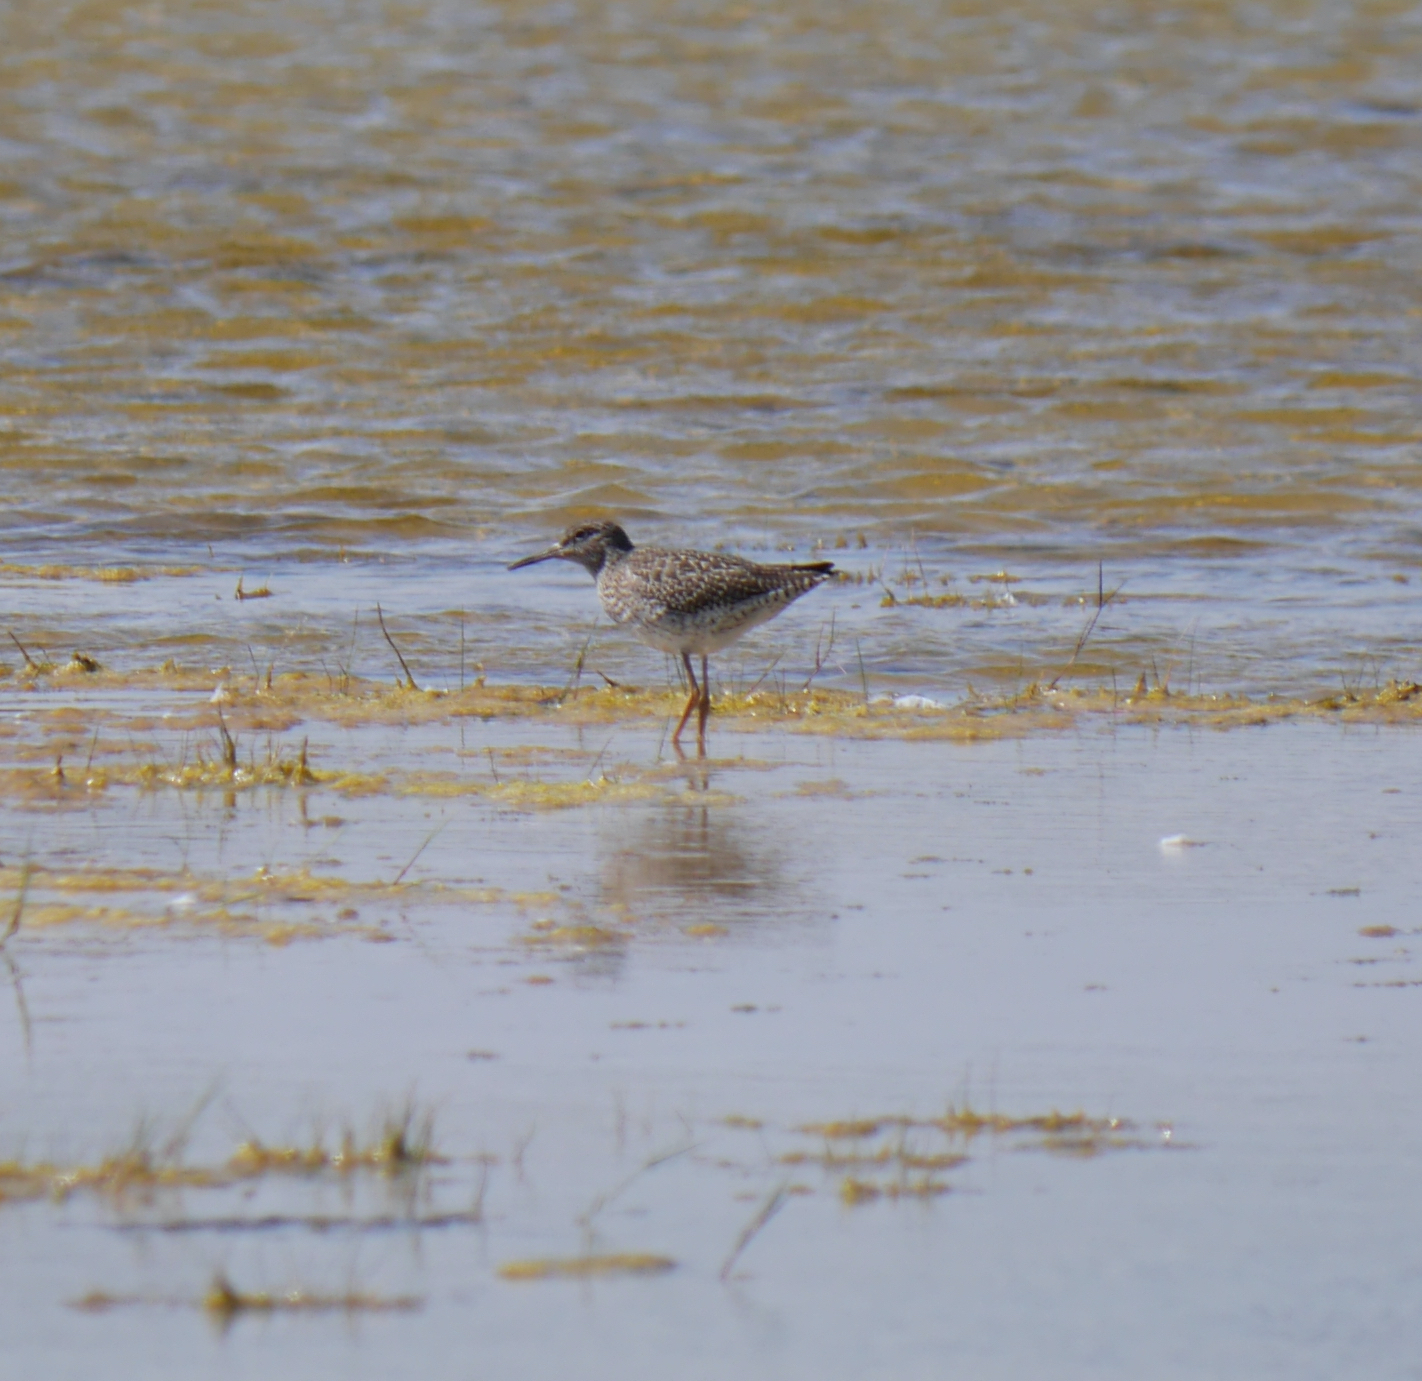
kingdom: Animalia
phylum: Chordata
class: Aves
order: Charadriiformes
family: Scolopacidae
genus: Tringa
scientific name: Tringa totanus
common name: Common redshank
